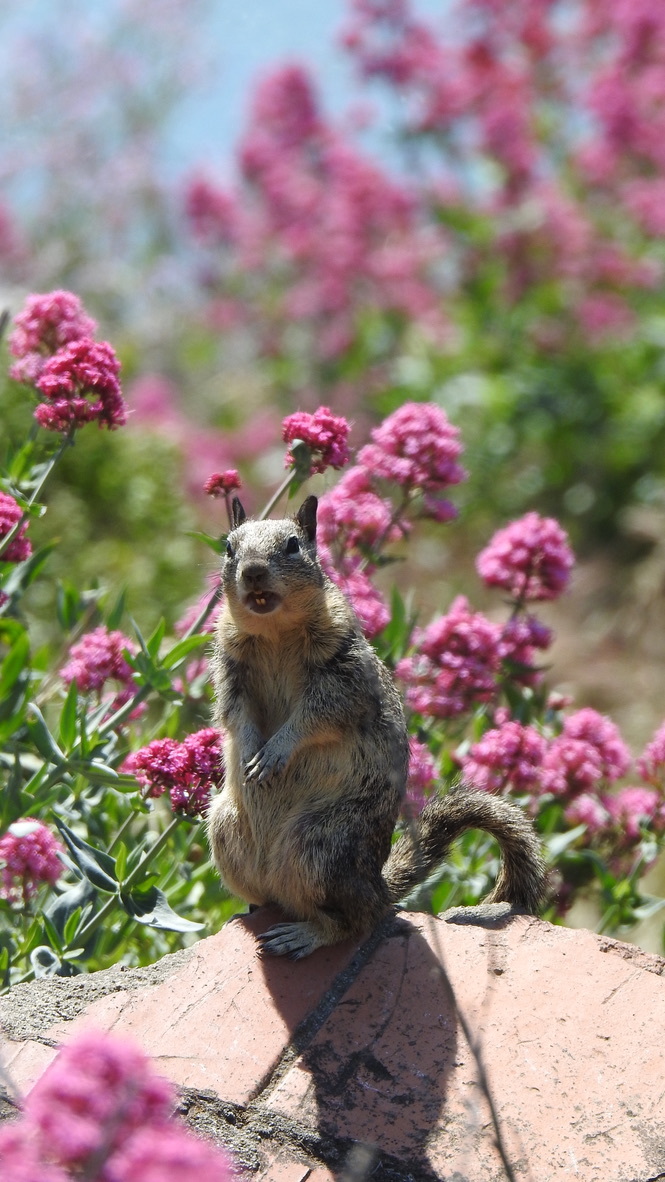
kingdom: Animalia
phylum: Chordata
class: Mammalia
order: Rodentia
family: Sciuridae
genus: Otospermophilus
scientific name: Otospermophilus beecheyi
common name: California ground squirrel
